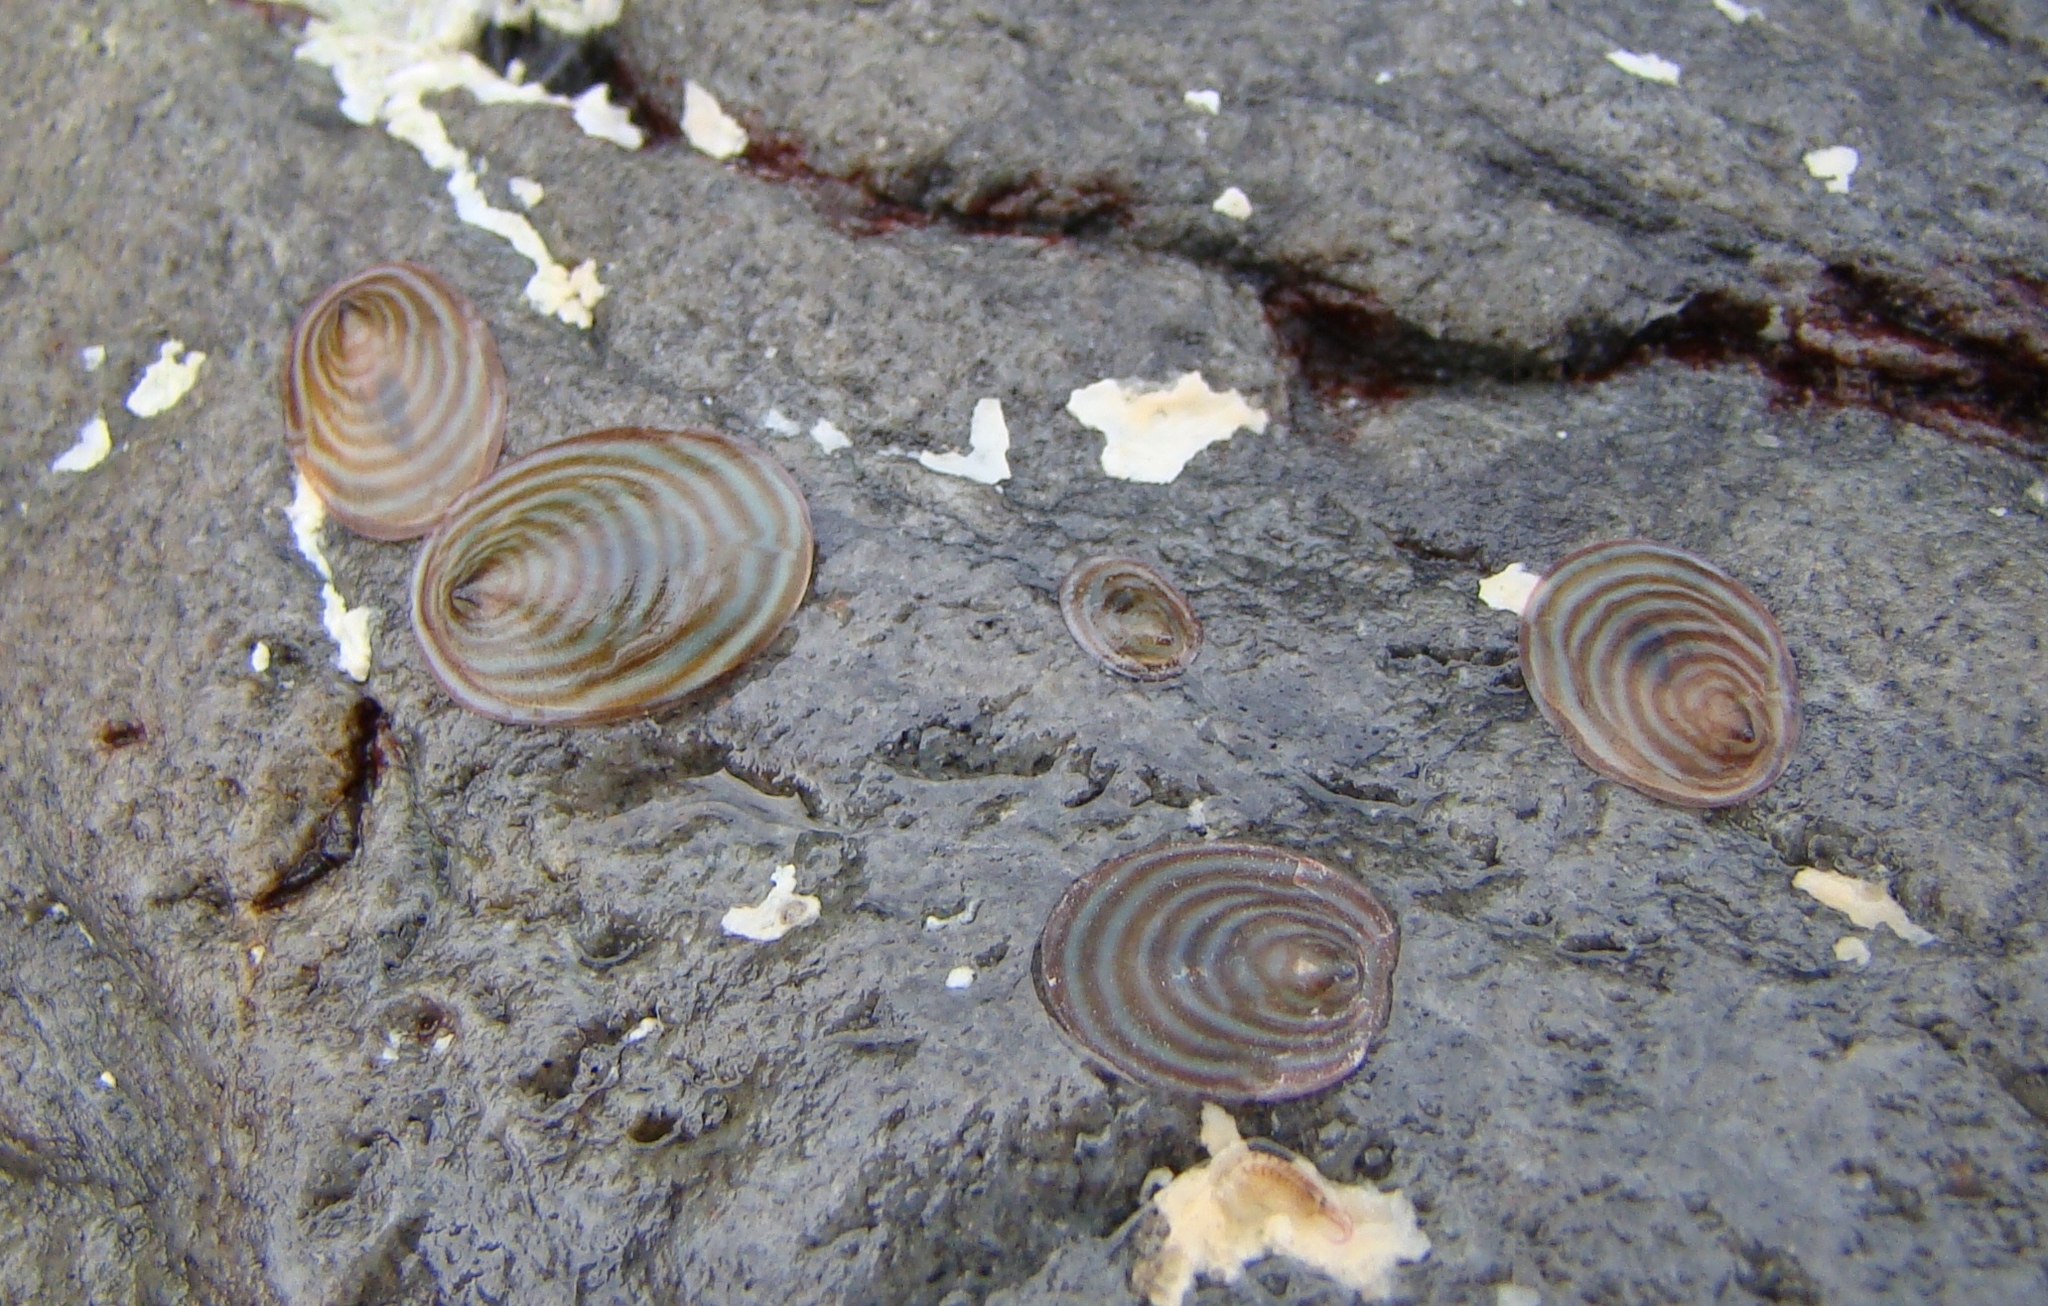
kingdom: Animalia
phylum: Mollusca
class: Gastropoda
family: Lottiidae
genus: Atalacmea
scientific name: Atalacmea fragilis
